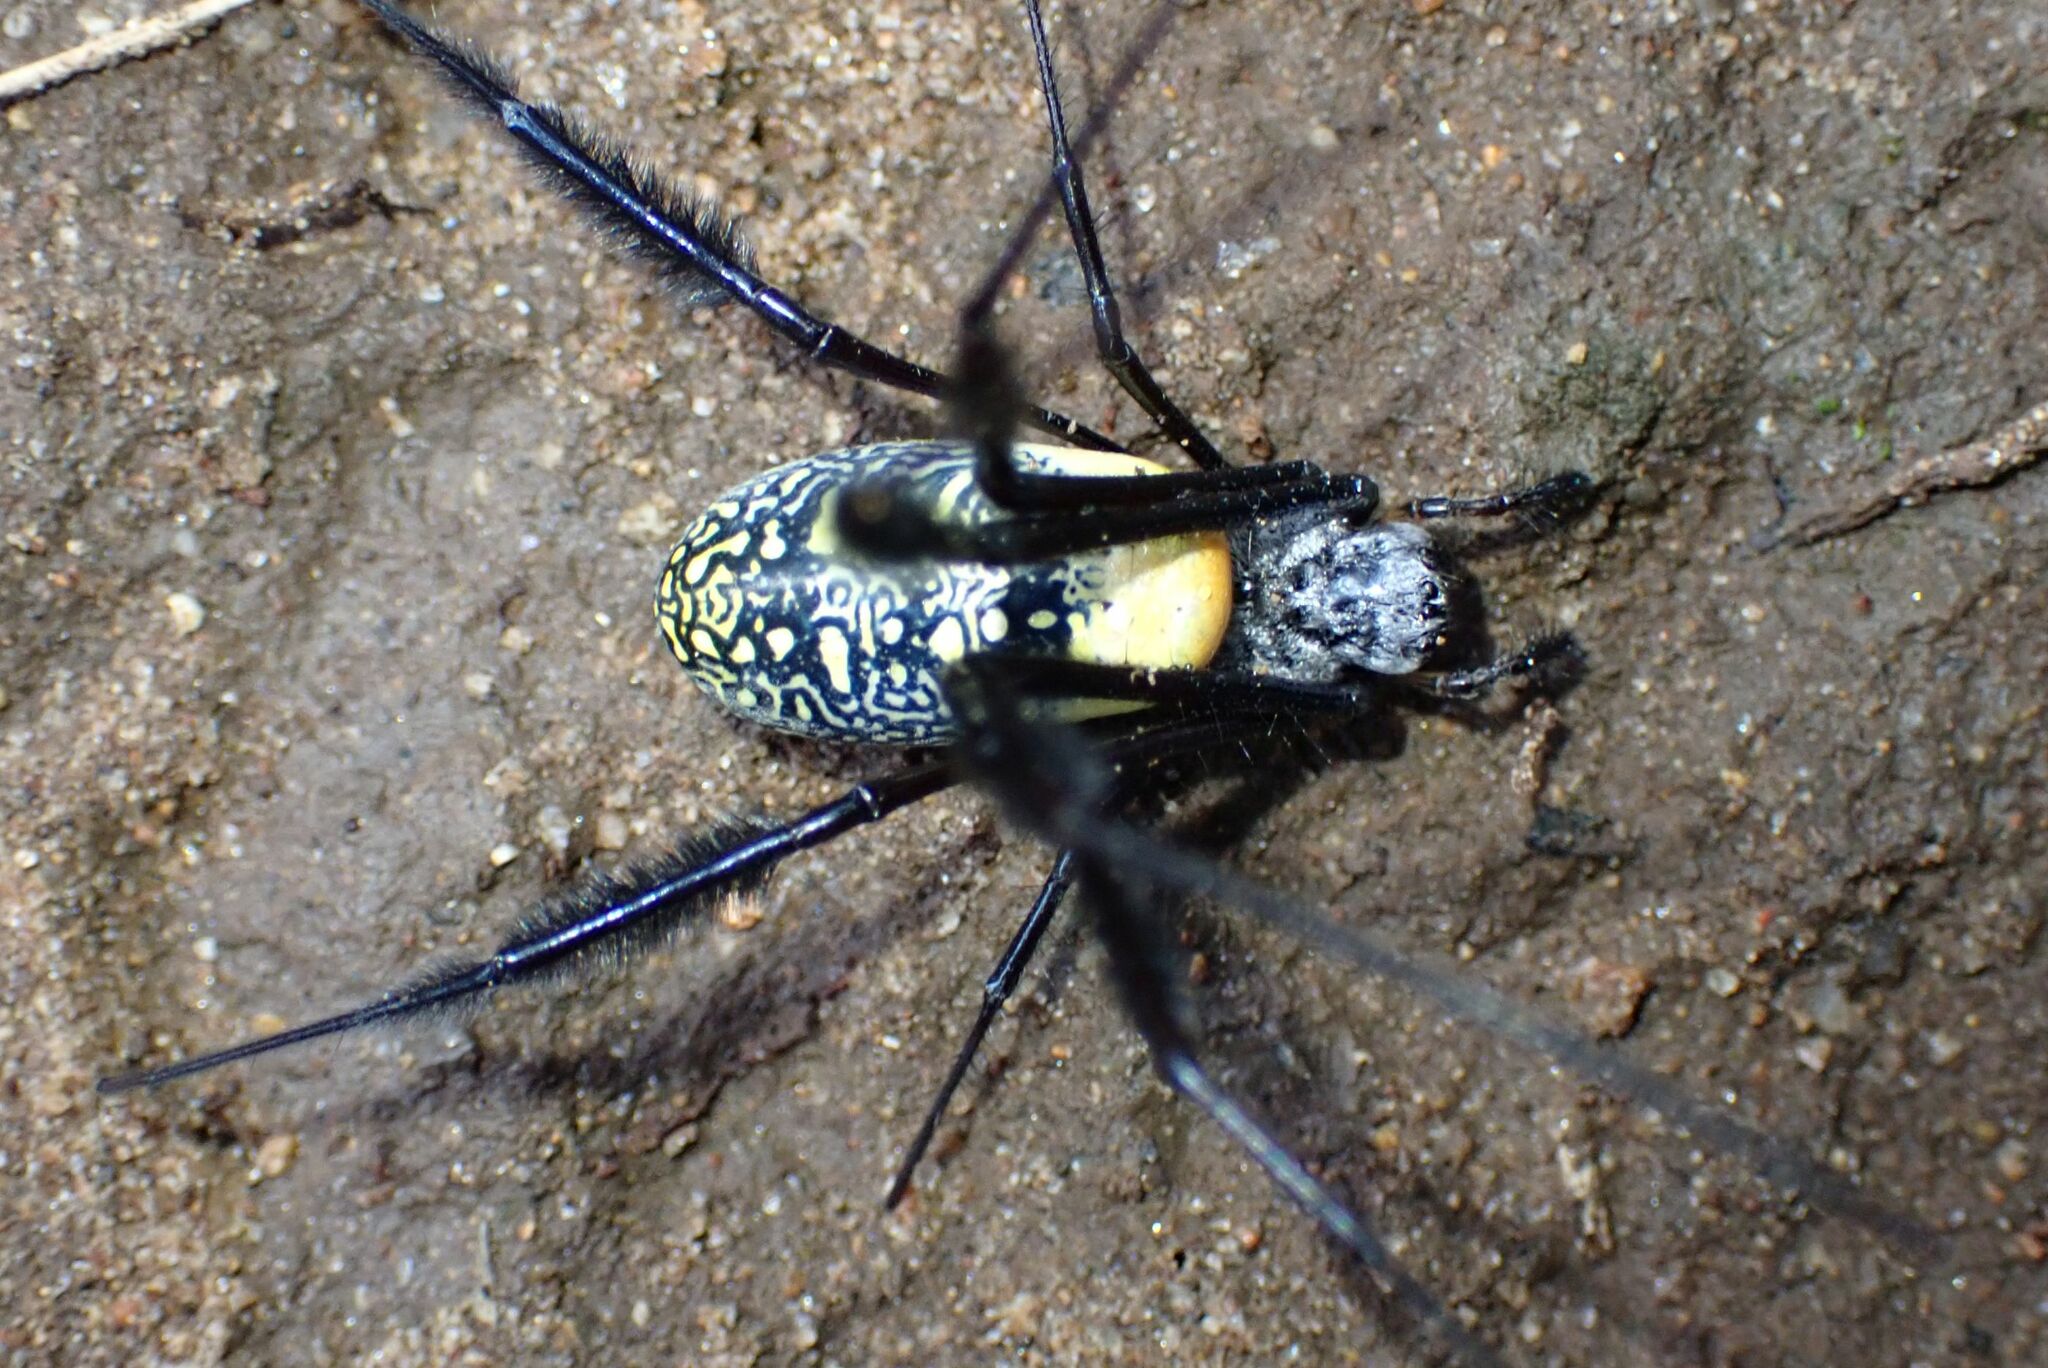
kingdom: Animalia
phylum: Arthropoda
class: Arachnida
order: Araneae
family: Araneidae
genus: Trichonephila
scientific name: Trichonephila fenestrata
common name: Hairy golden orb weaver
